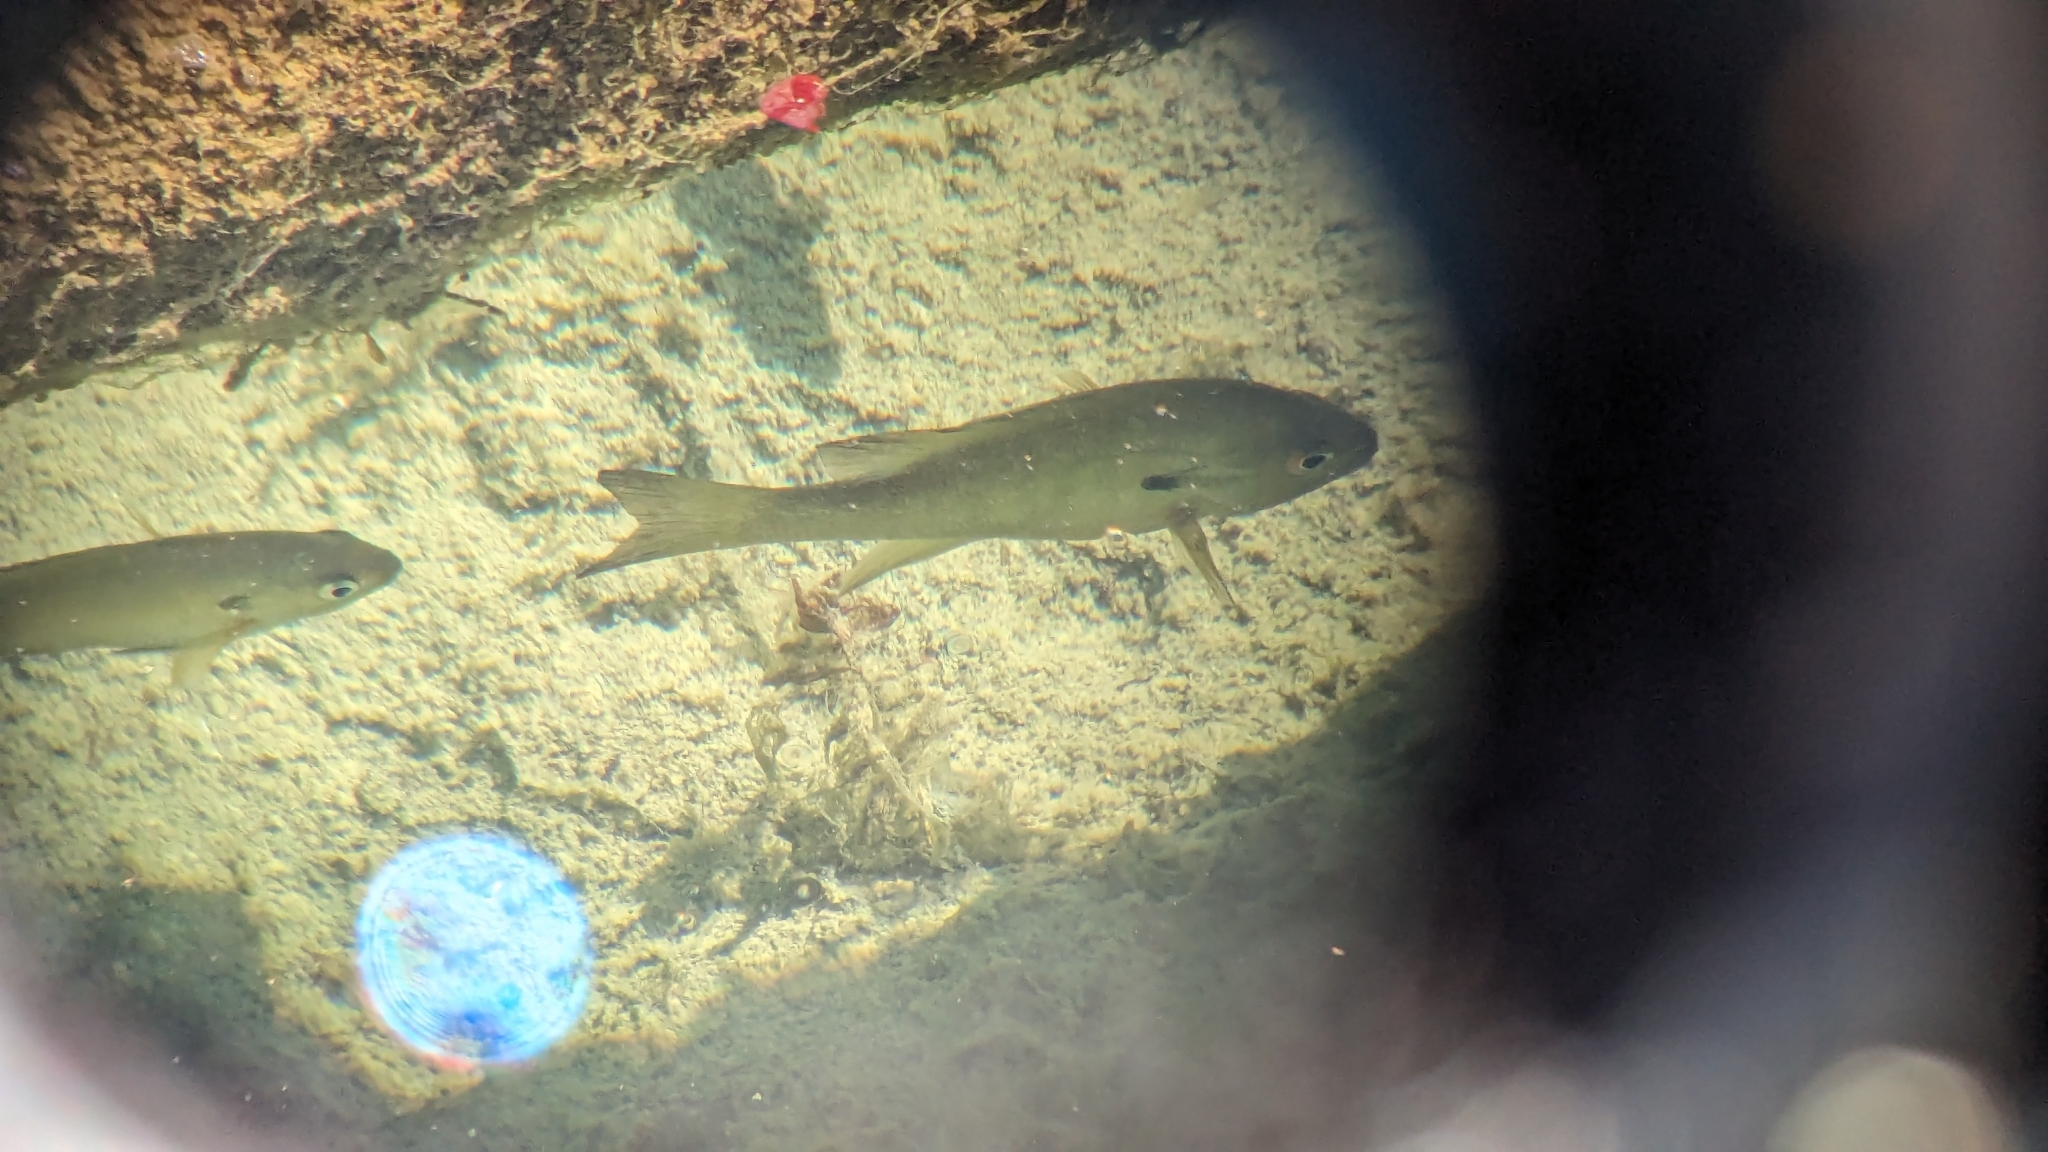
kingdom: Animalia
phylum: Chordata
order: Perciformes
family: Centrarchidae
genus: Lepomis
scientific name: Lepomis auritus
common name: Redbreast sunfish
